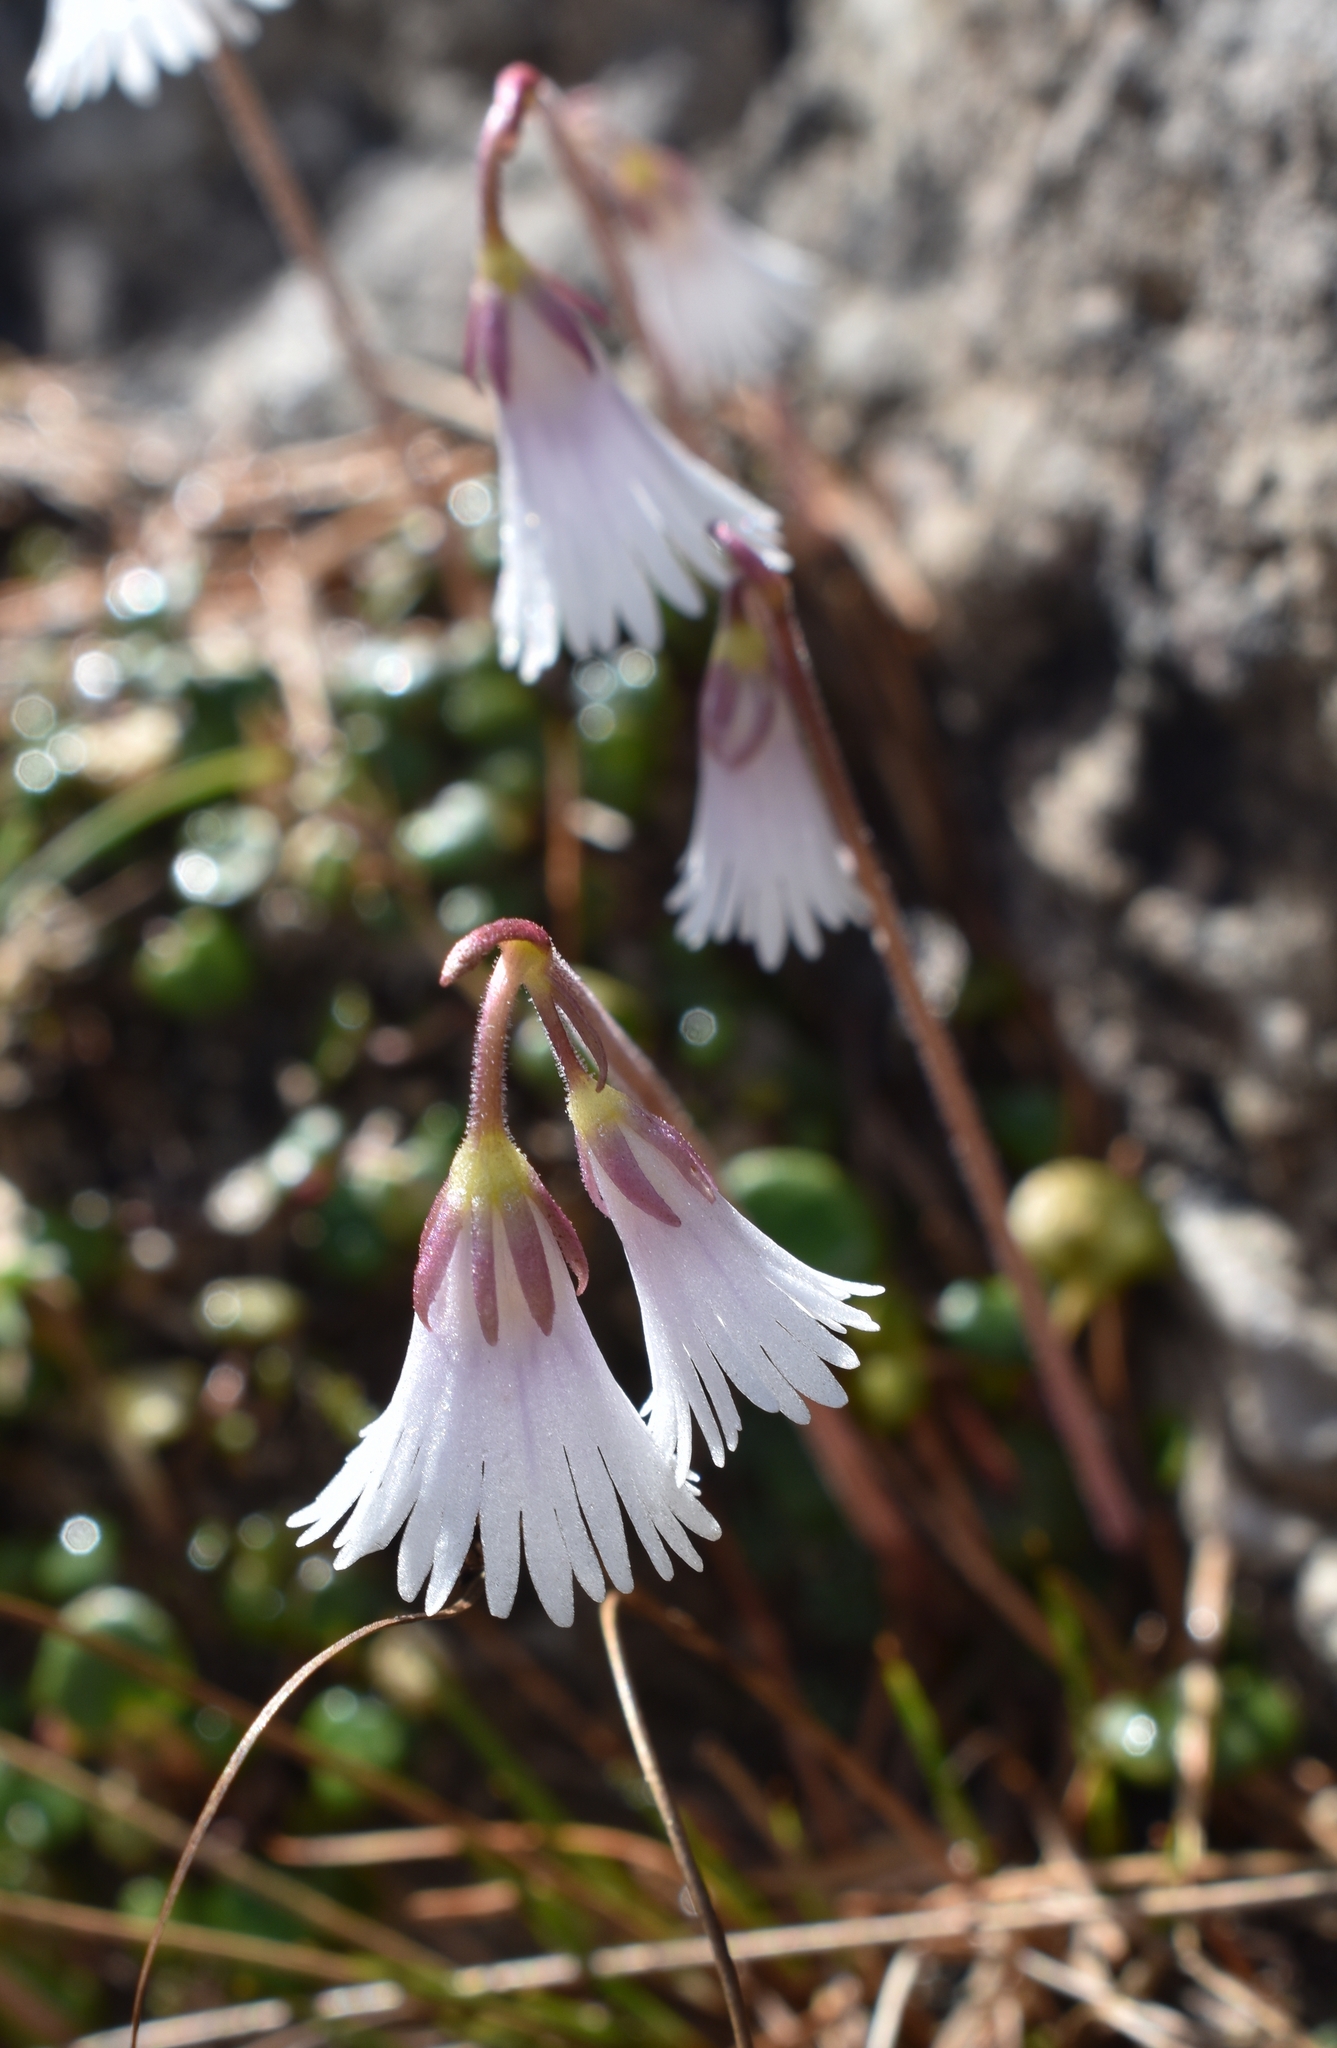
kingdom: Plantae
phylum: Tracheophyta
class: Magnoliopsida
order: Ericales
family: Primulaceae
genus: Soldanella
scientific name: Soldanella minima
